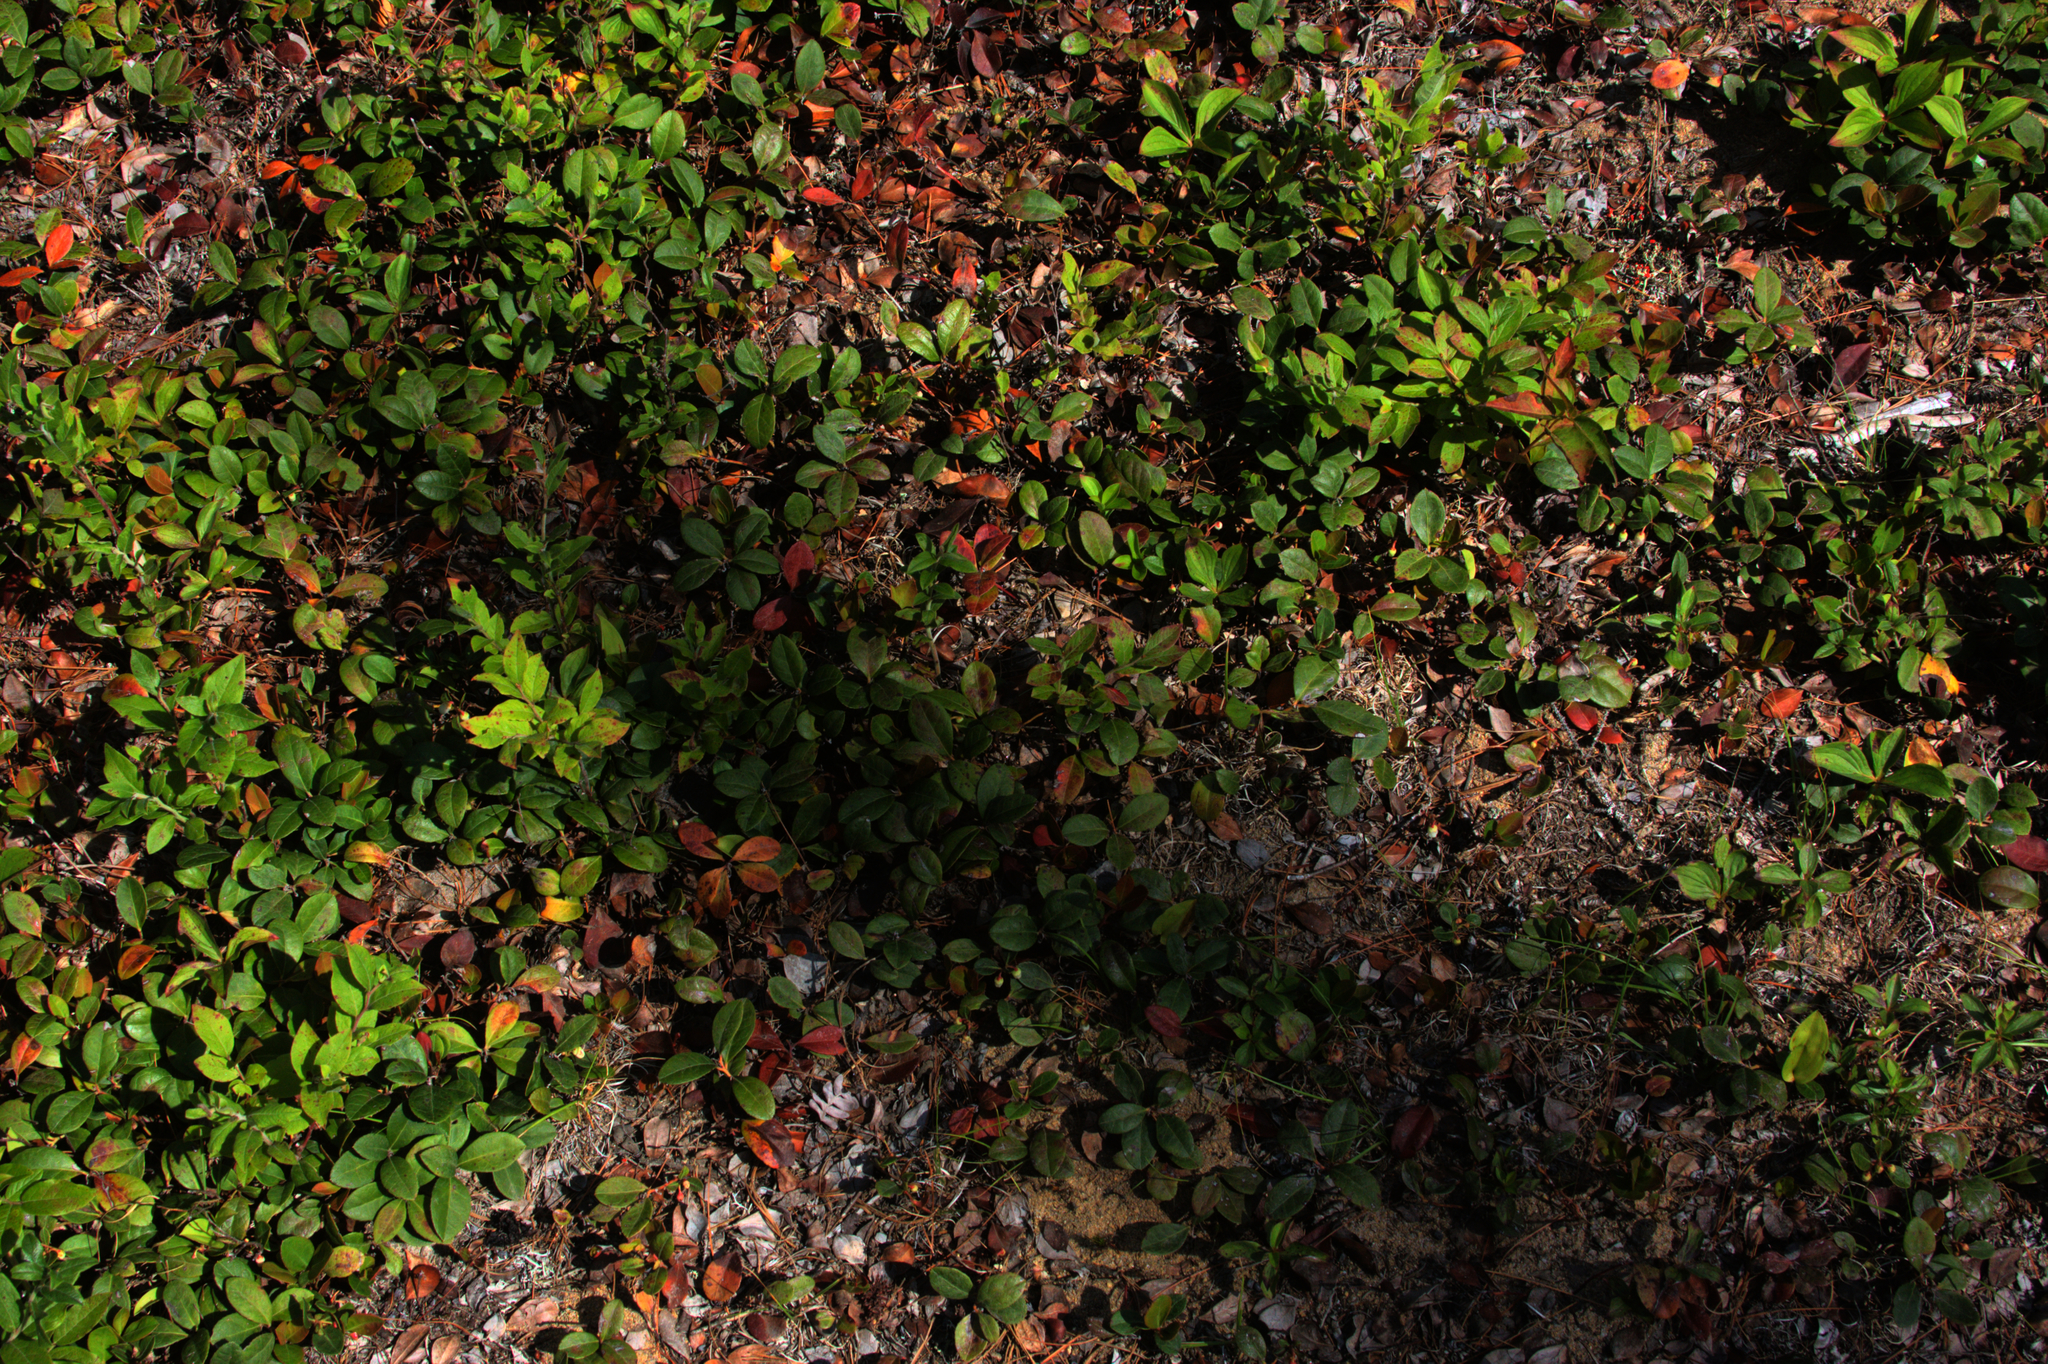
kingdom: Plantae
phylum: Tracheophyta
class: Magnoliopsida
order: Ericales
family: Ericaceae
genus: Gaultheria
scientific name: Gaultheria procumbens
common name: Checkerberry
